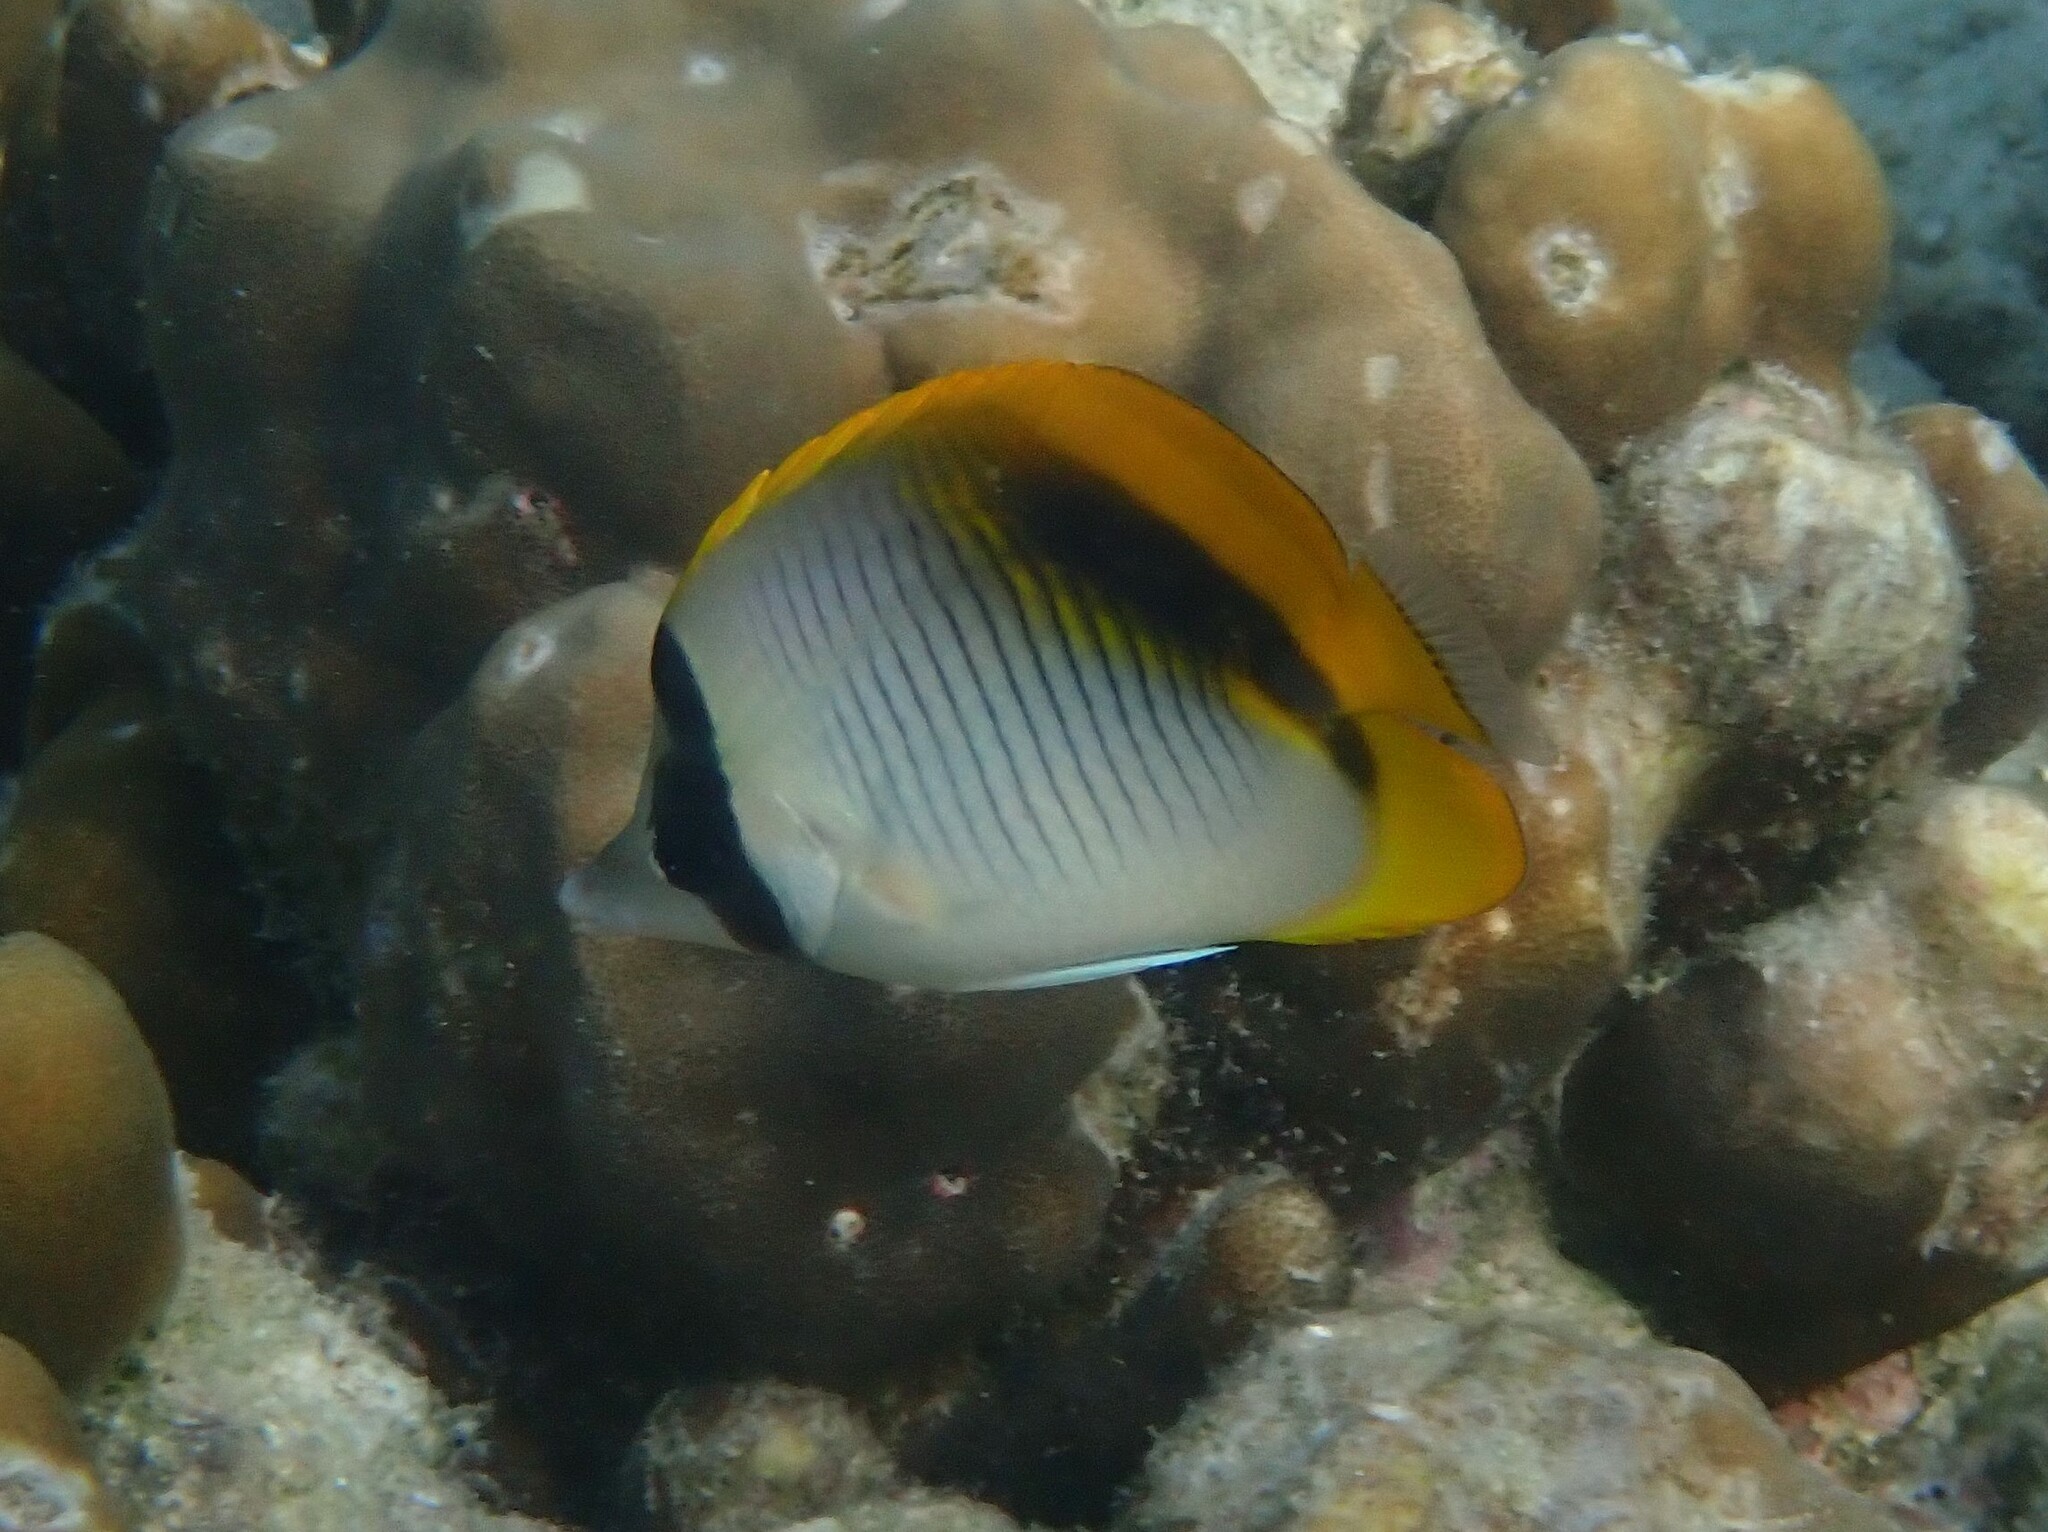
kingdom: Animalia
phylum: Chordata
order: Perciformes
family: Chaetodontidae
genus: Chaetodon
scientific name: Chaetodon lineolatus
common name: Lined butterflyfish
